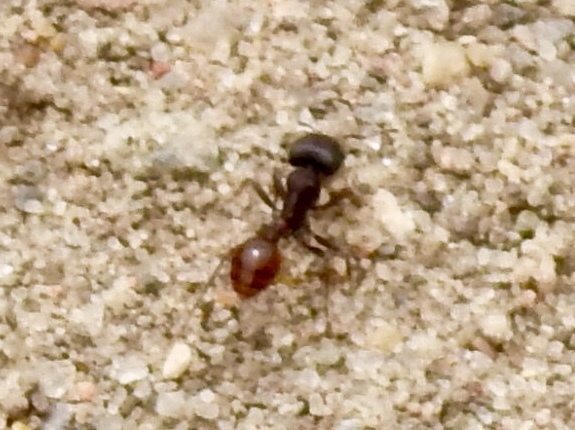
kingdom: Animalia
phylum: Arthropoda
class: Insecta
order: Hymenoptera
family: Formicidae
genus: Pogonomyrmex
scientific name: Pogonomyrmex rugosus
